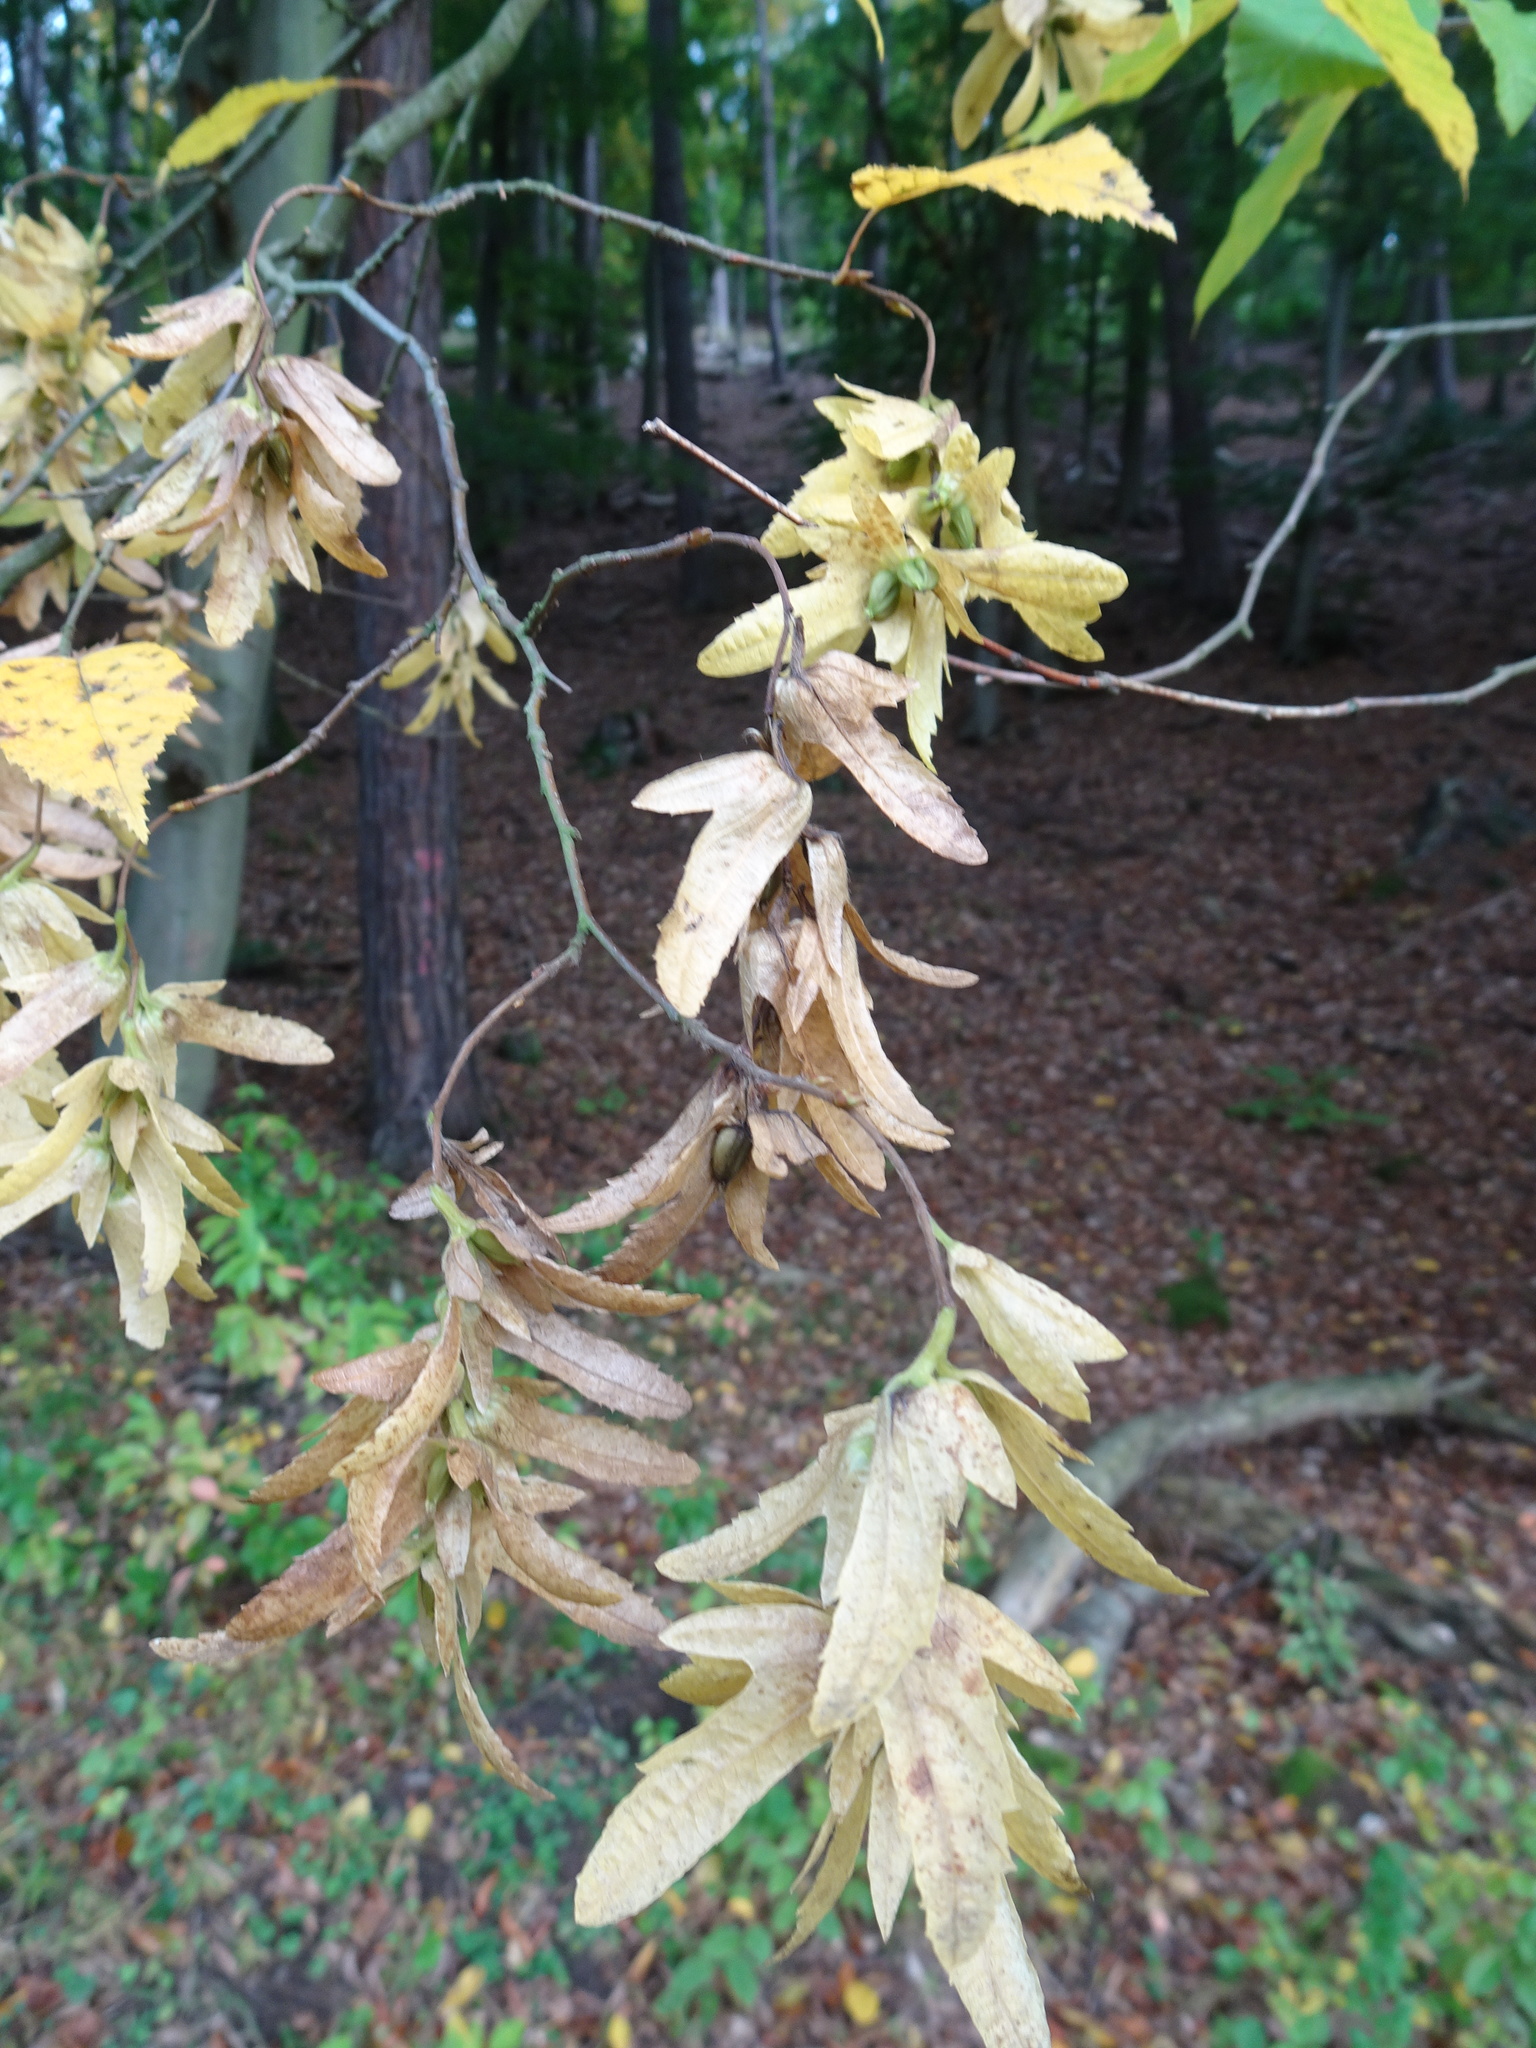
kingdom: Plantae
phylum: Tracheophyta
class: Magnoliopsida
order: Fagales
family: Betulaceae
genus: Carpinus
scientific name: Carpinus betulus
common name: Hornbeam
